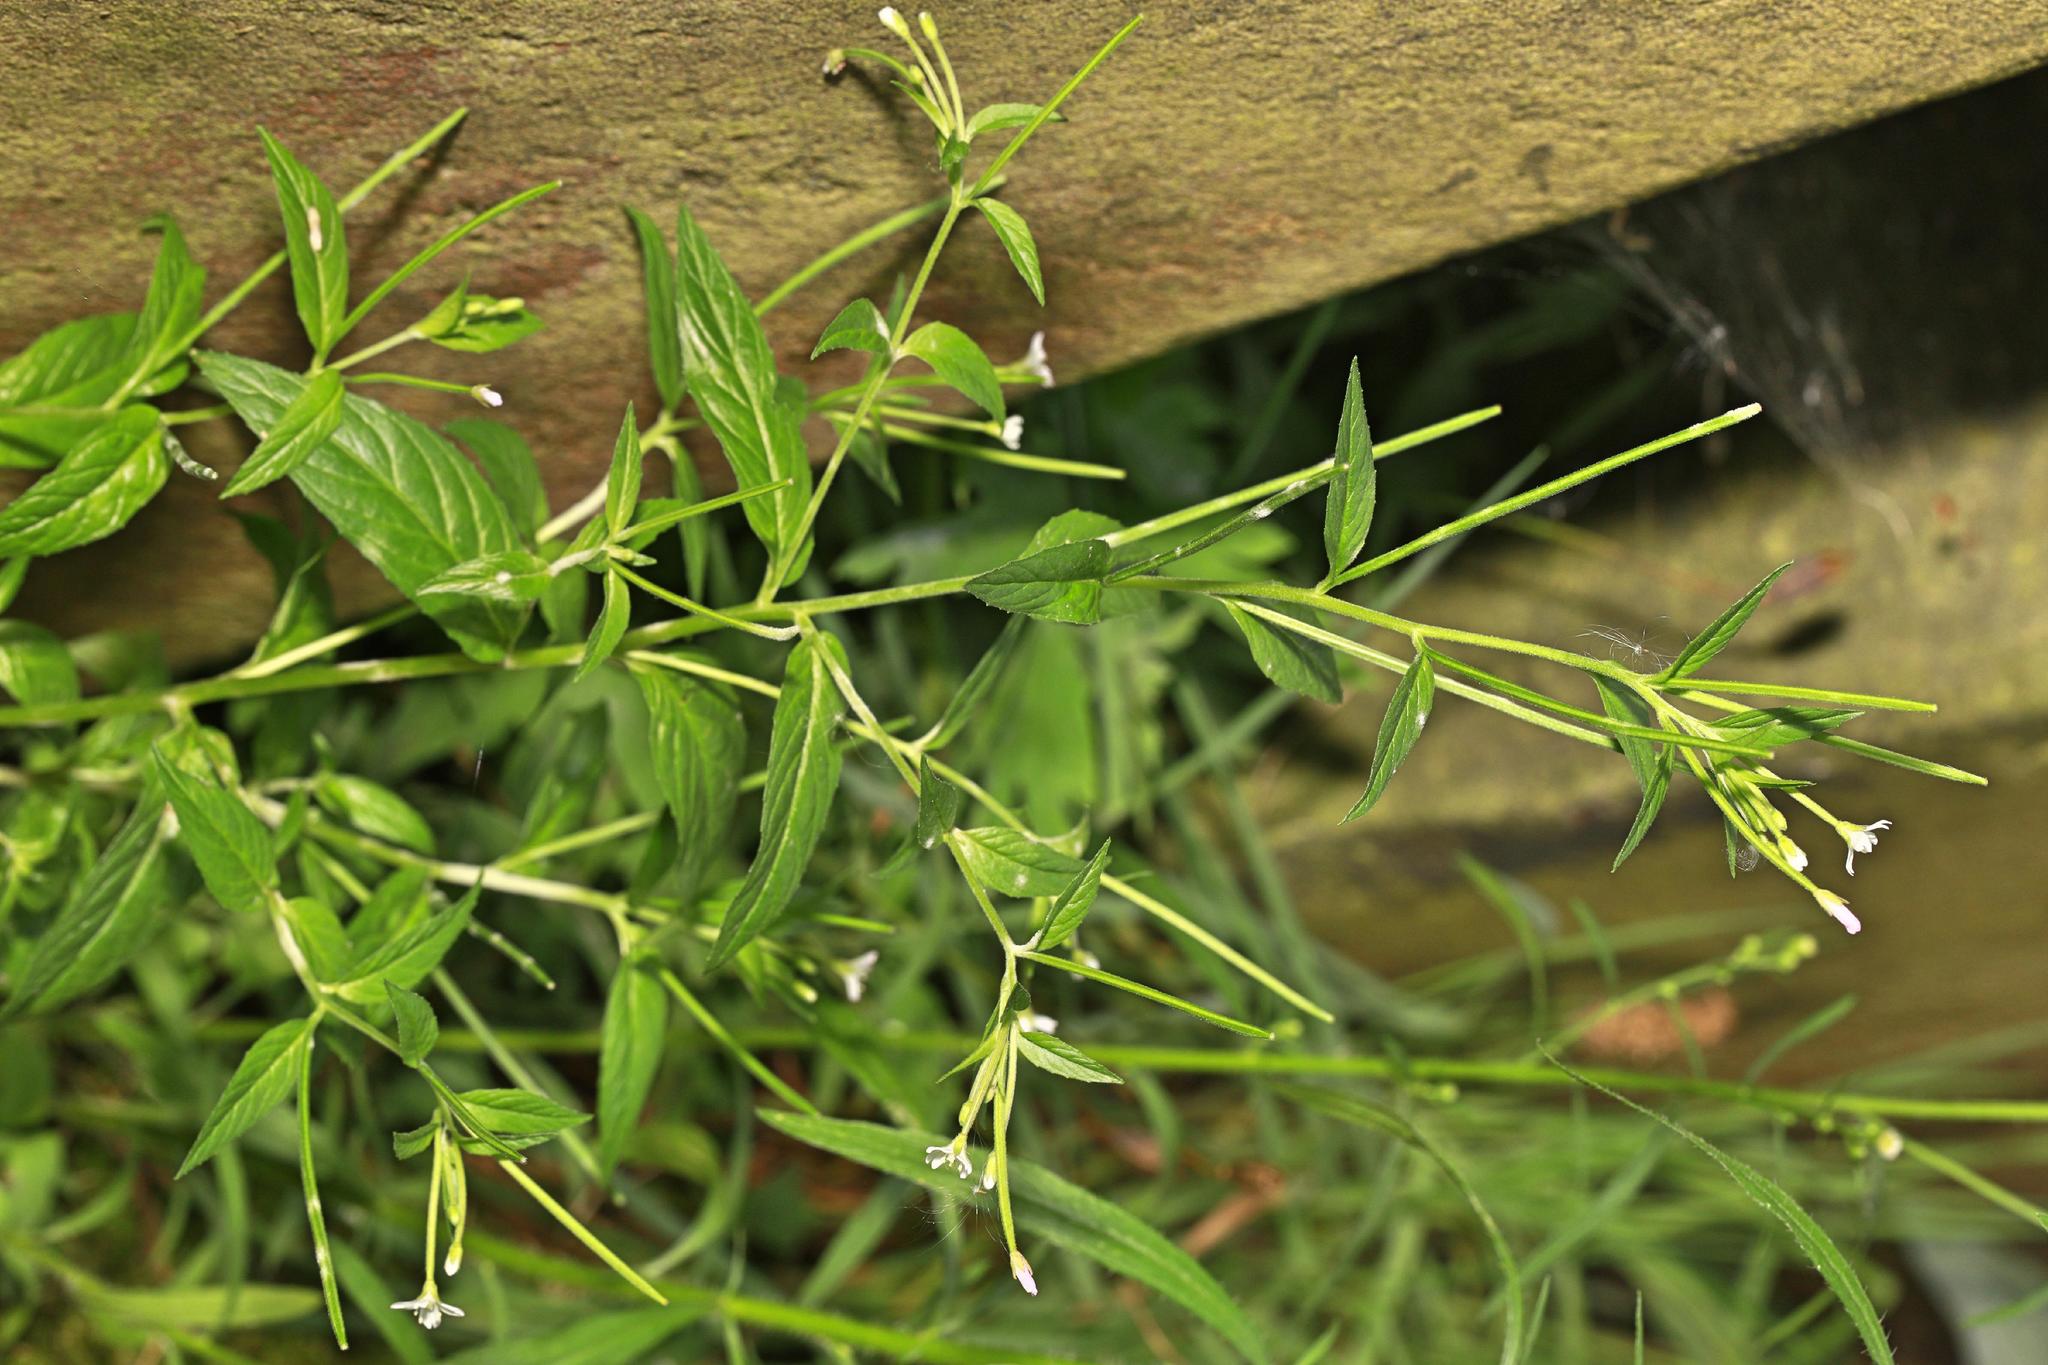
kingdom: Plantae
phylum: Tracheophyta
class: Magnoliopsida
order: Myrtales
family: Onagraceae
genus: Epilobium
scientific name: Epilobium montanum
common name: Broad-leaved willowherb
